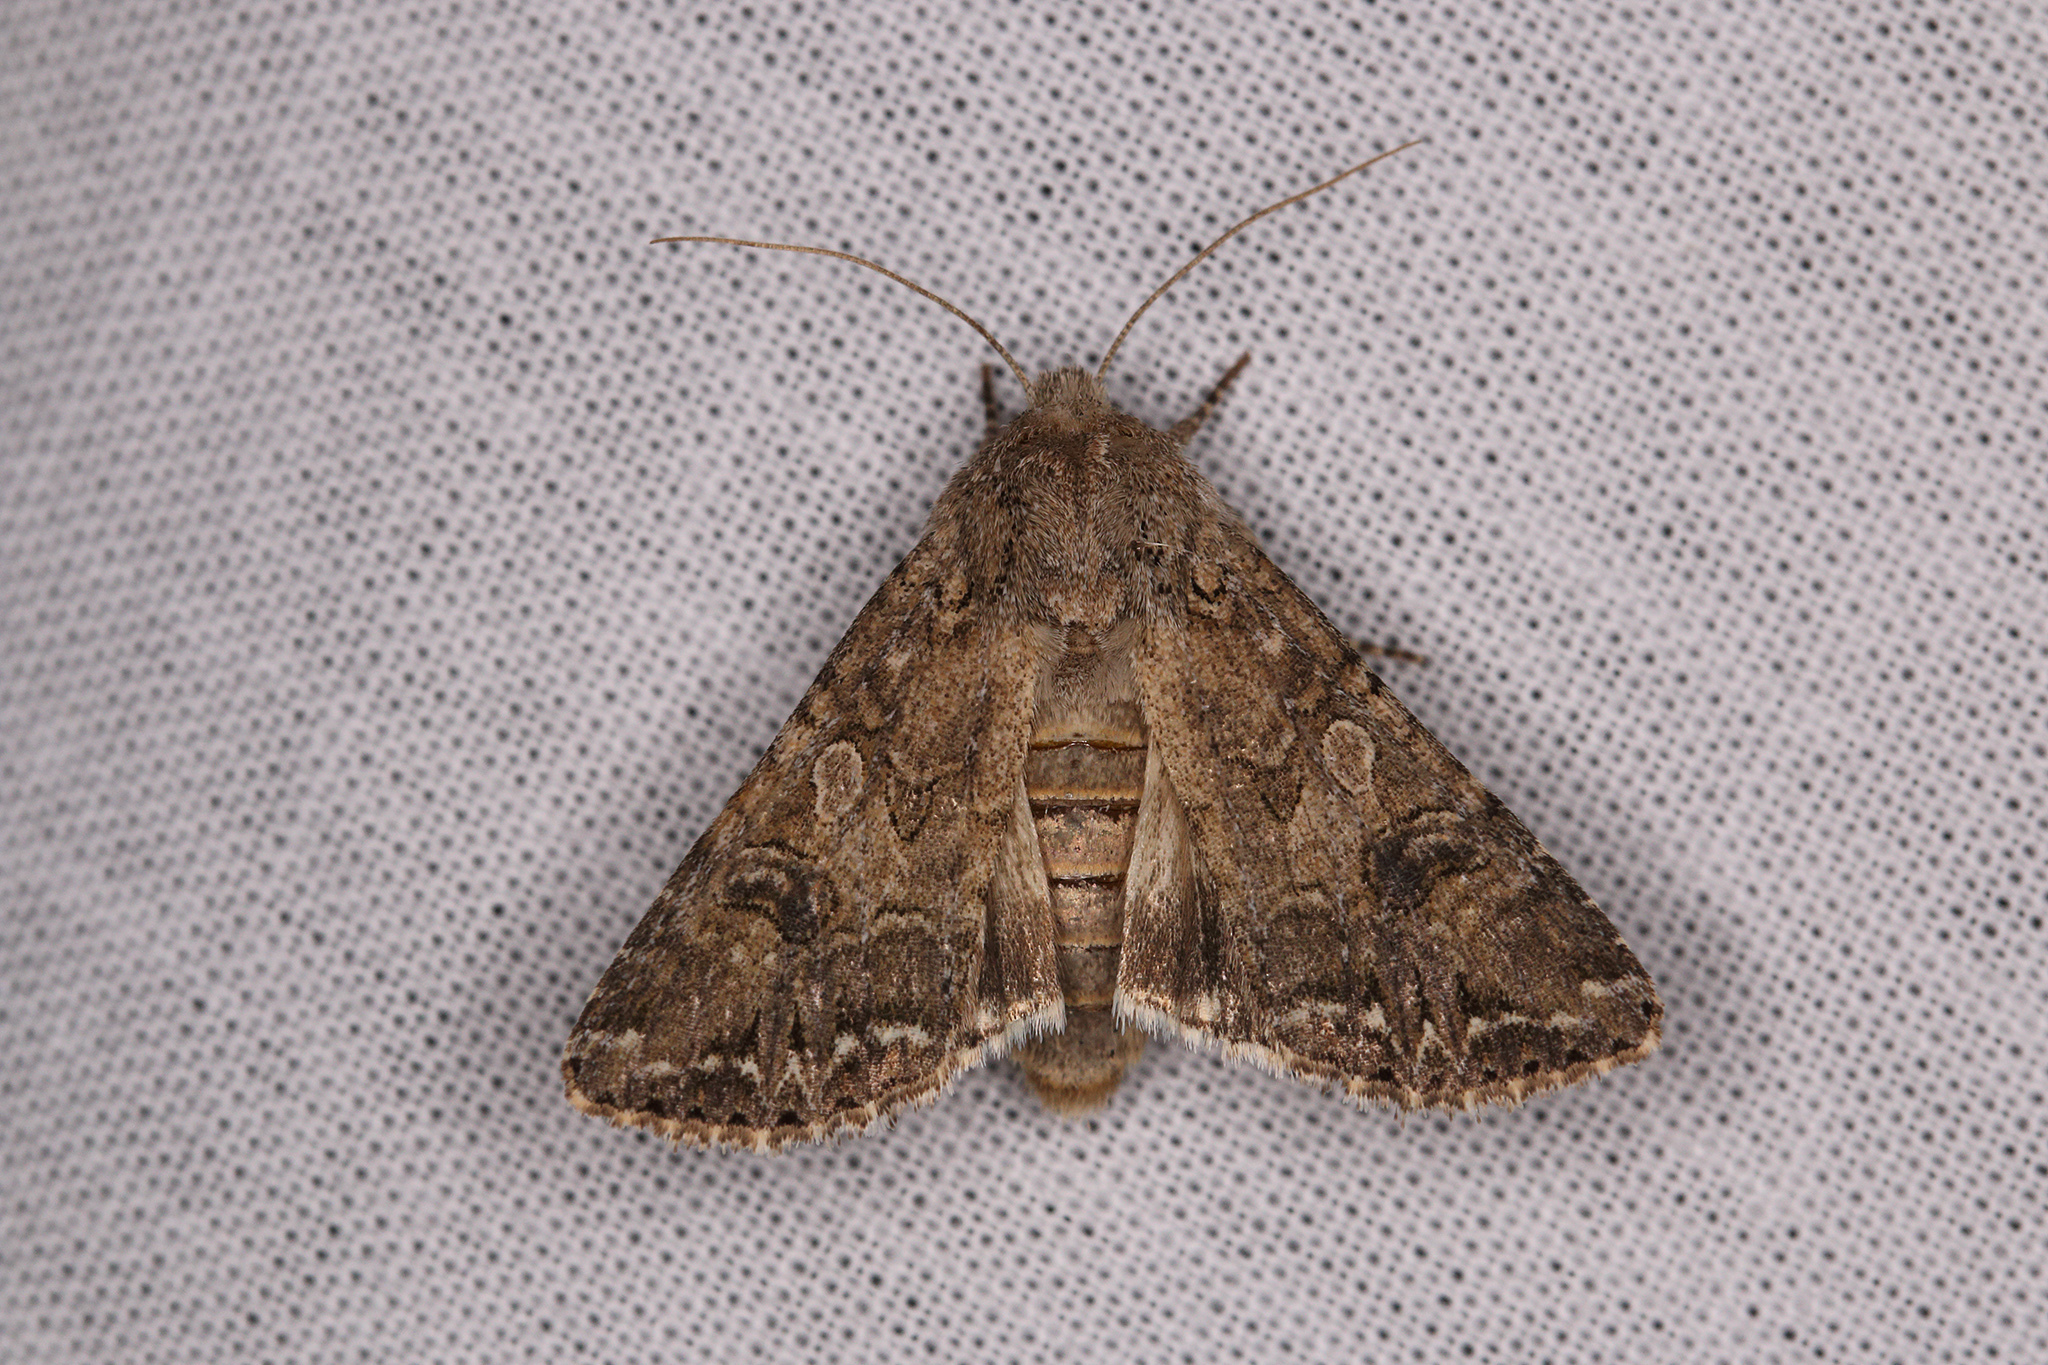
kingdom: Animalia
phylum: Arthropoda
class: Insecta
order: Lepidoptera
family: Noctuidae
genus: Anarta
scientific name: Anarta trifolii
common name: Clover cutworm moth
